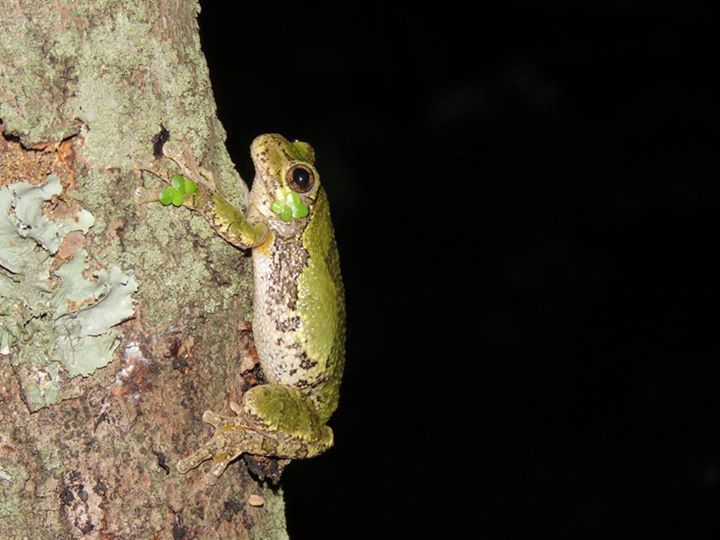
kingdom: Animalia
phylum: Chordata
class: Amphibia
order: Anura
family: Hylidae
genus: Hyla
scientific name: Hyla
